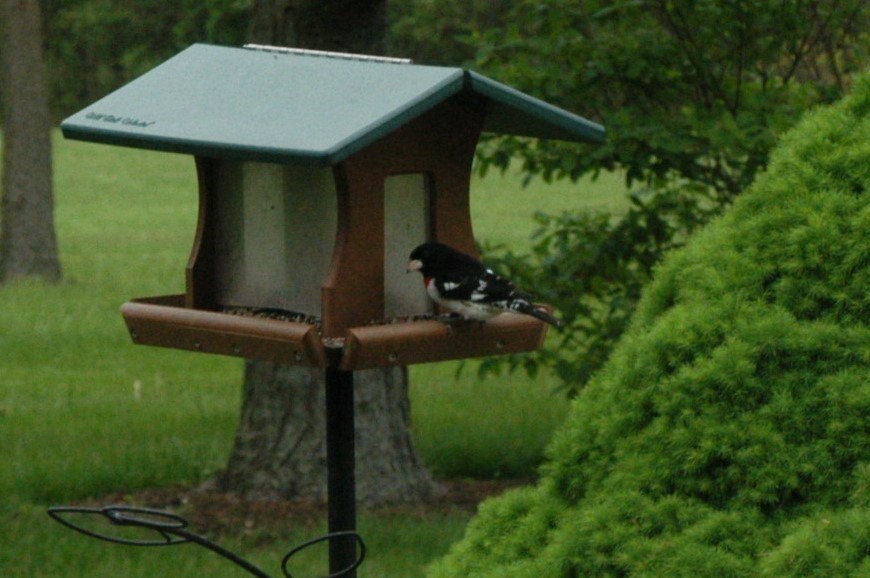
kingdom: Animalia
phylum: Chordata
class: Aves
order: Passeriformes
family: Cardinalidae
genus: Pheucticus
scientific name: Pheucticus ludovicianus
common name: Rose-breasted grosbeak
